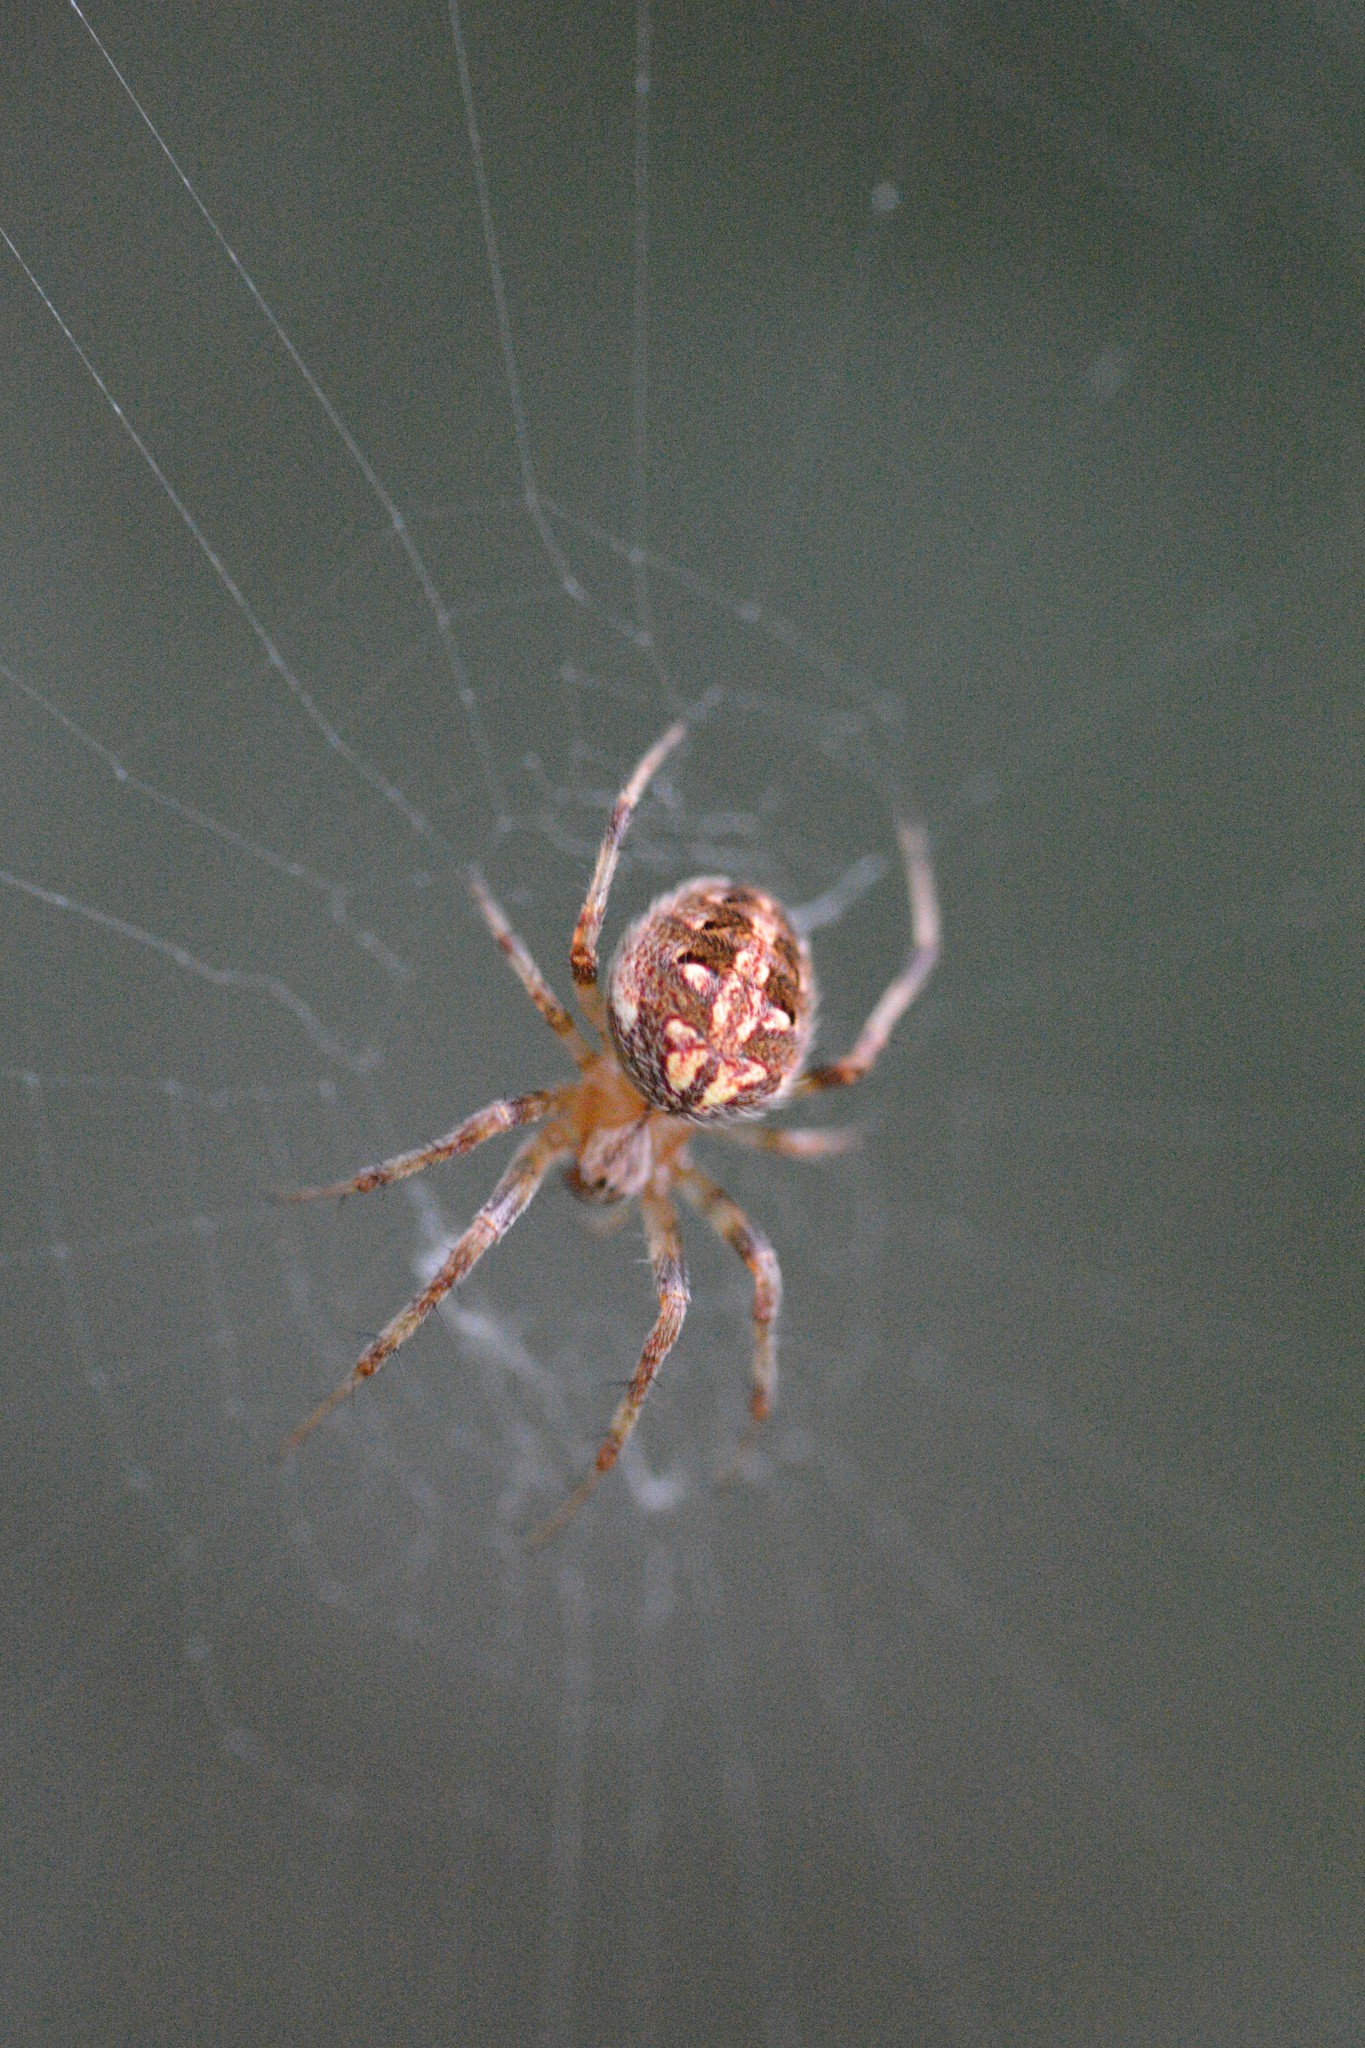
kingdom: Animalia
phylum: Arthropoda
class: Arachnida
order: Araneae
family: Araneidae
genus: Neoscona
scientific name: Neoscona arabesca
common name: Orb weavers
